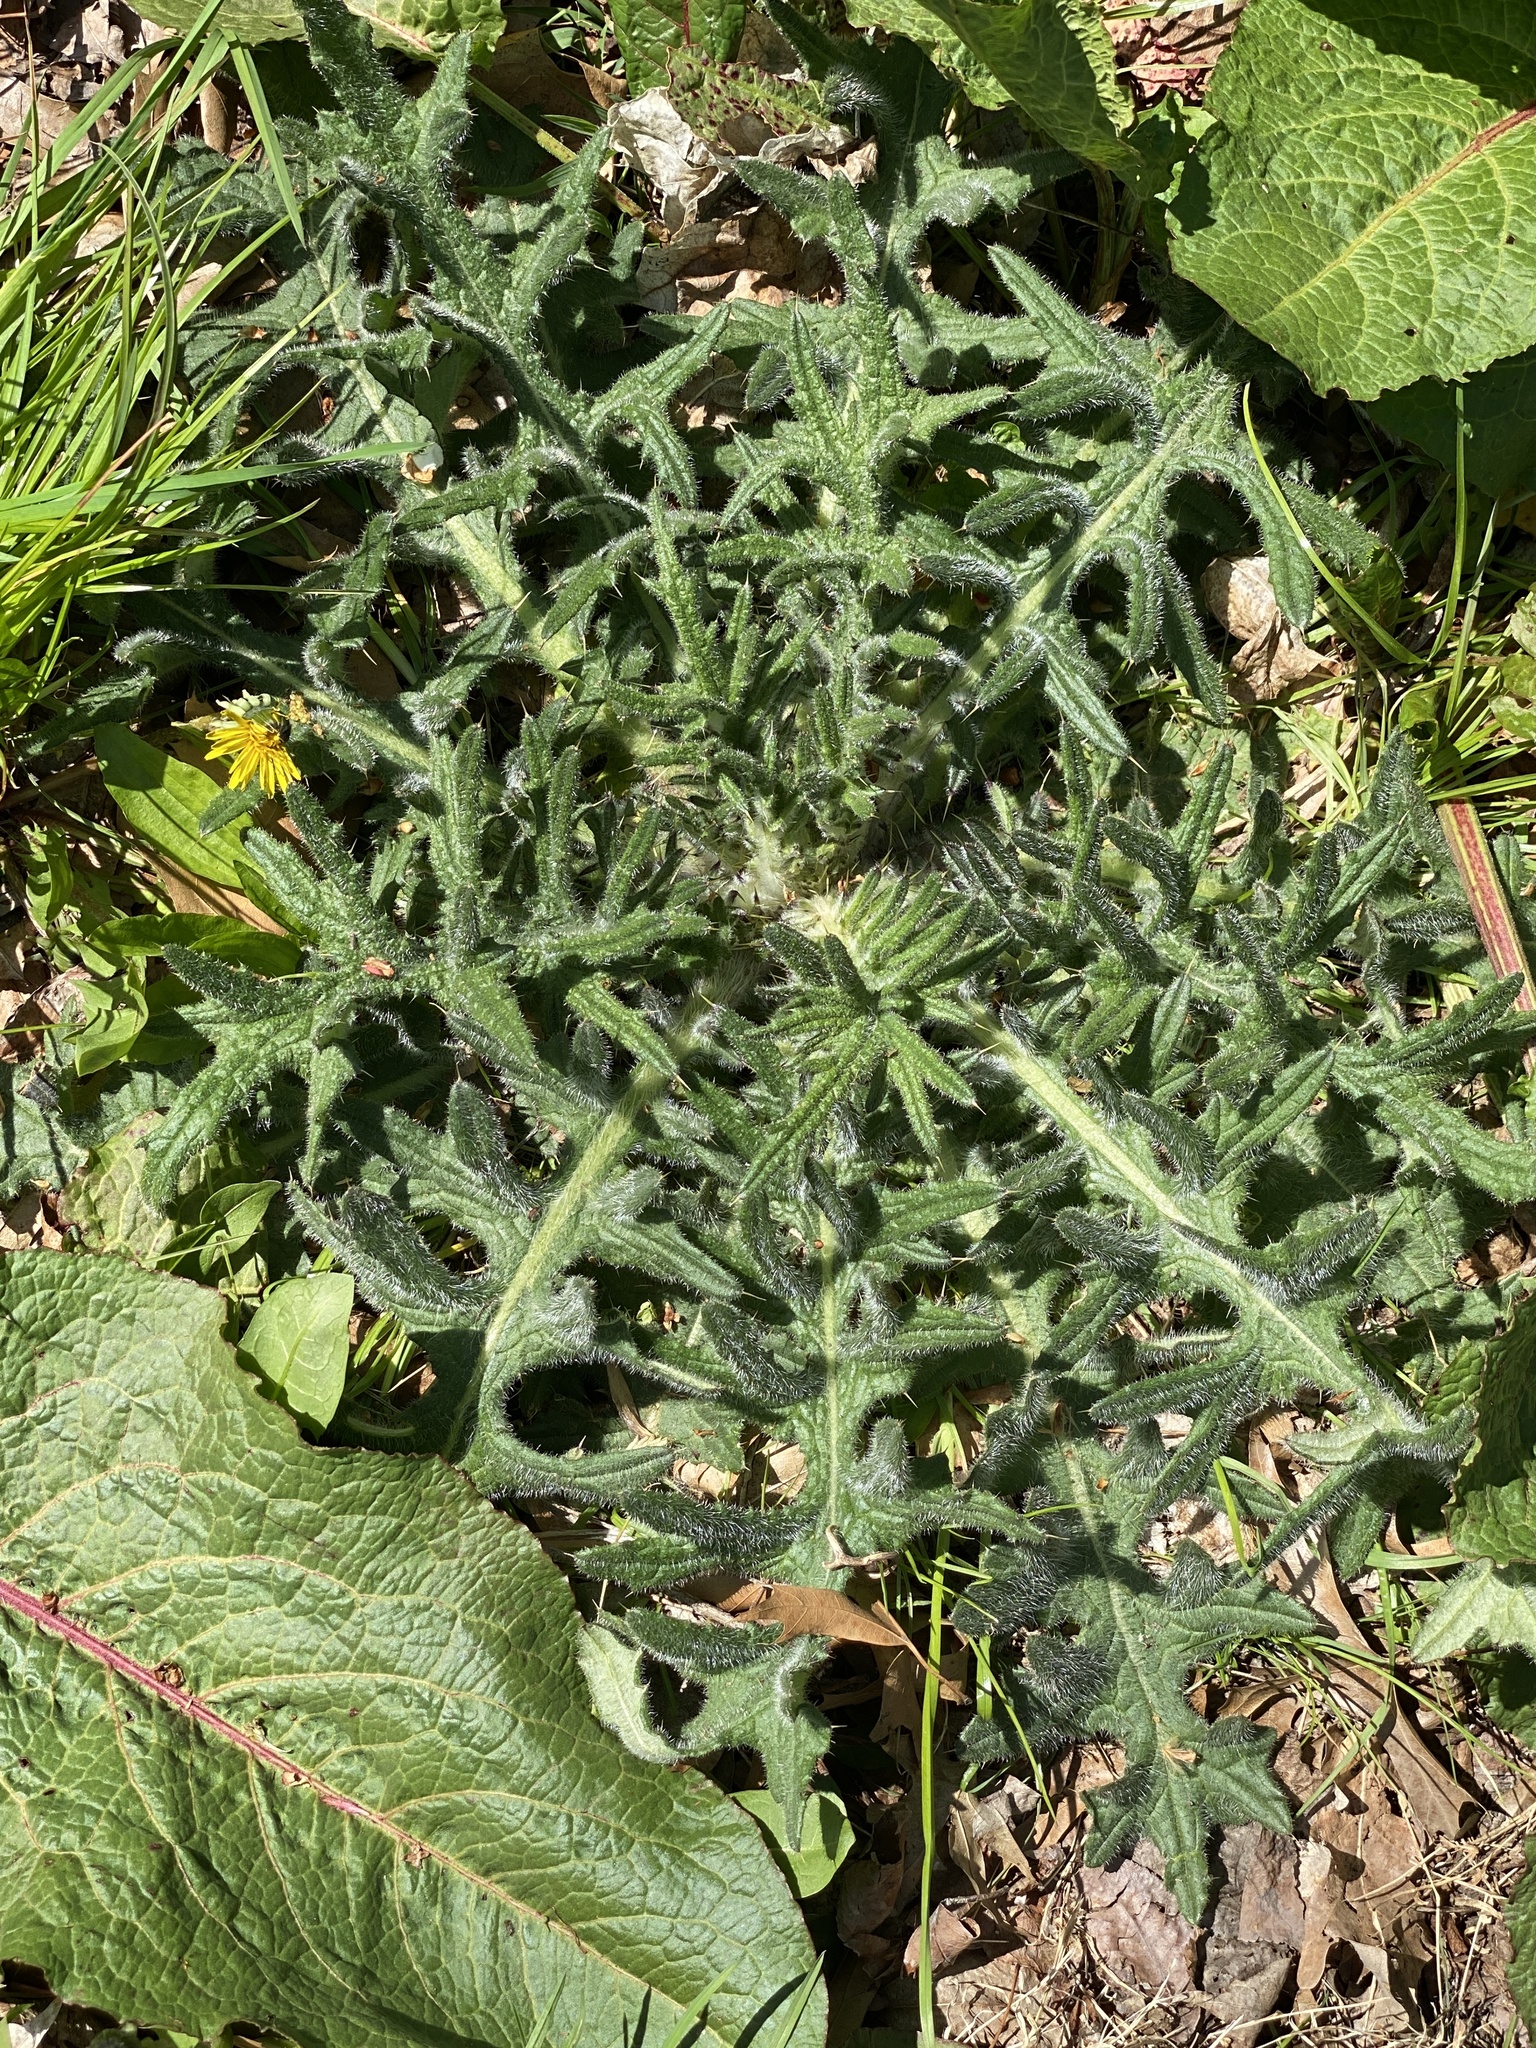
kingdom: Plantae
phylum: Tracheophyta
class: Magnoliopsida
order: Asterales
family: Asteraceae
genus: Cirsium
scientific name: Cirsium vulgare
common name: Bull thistle
